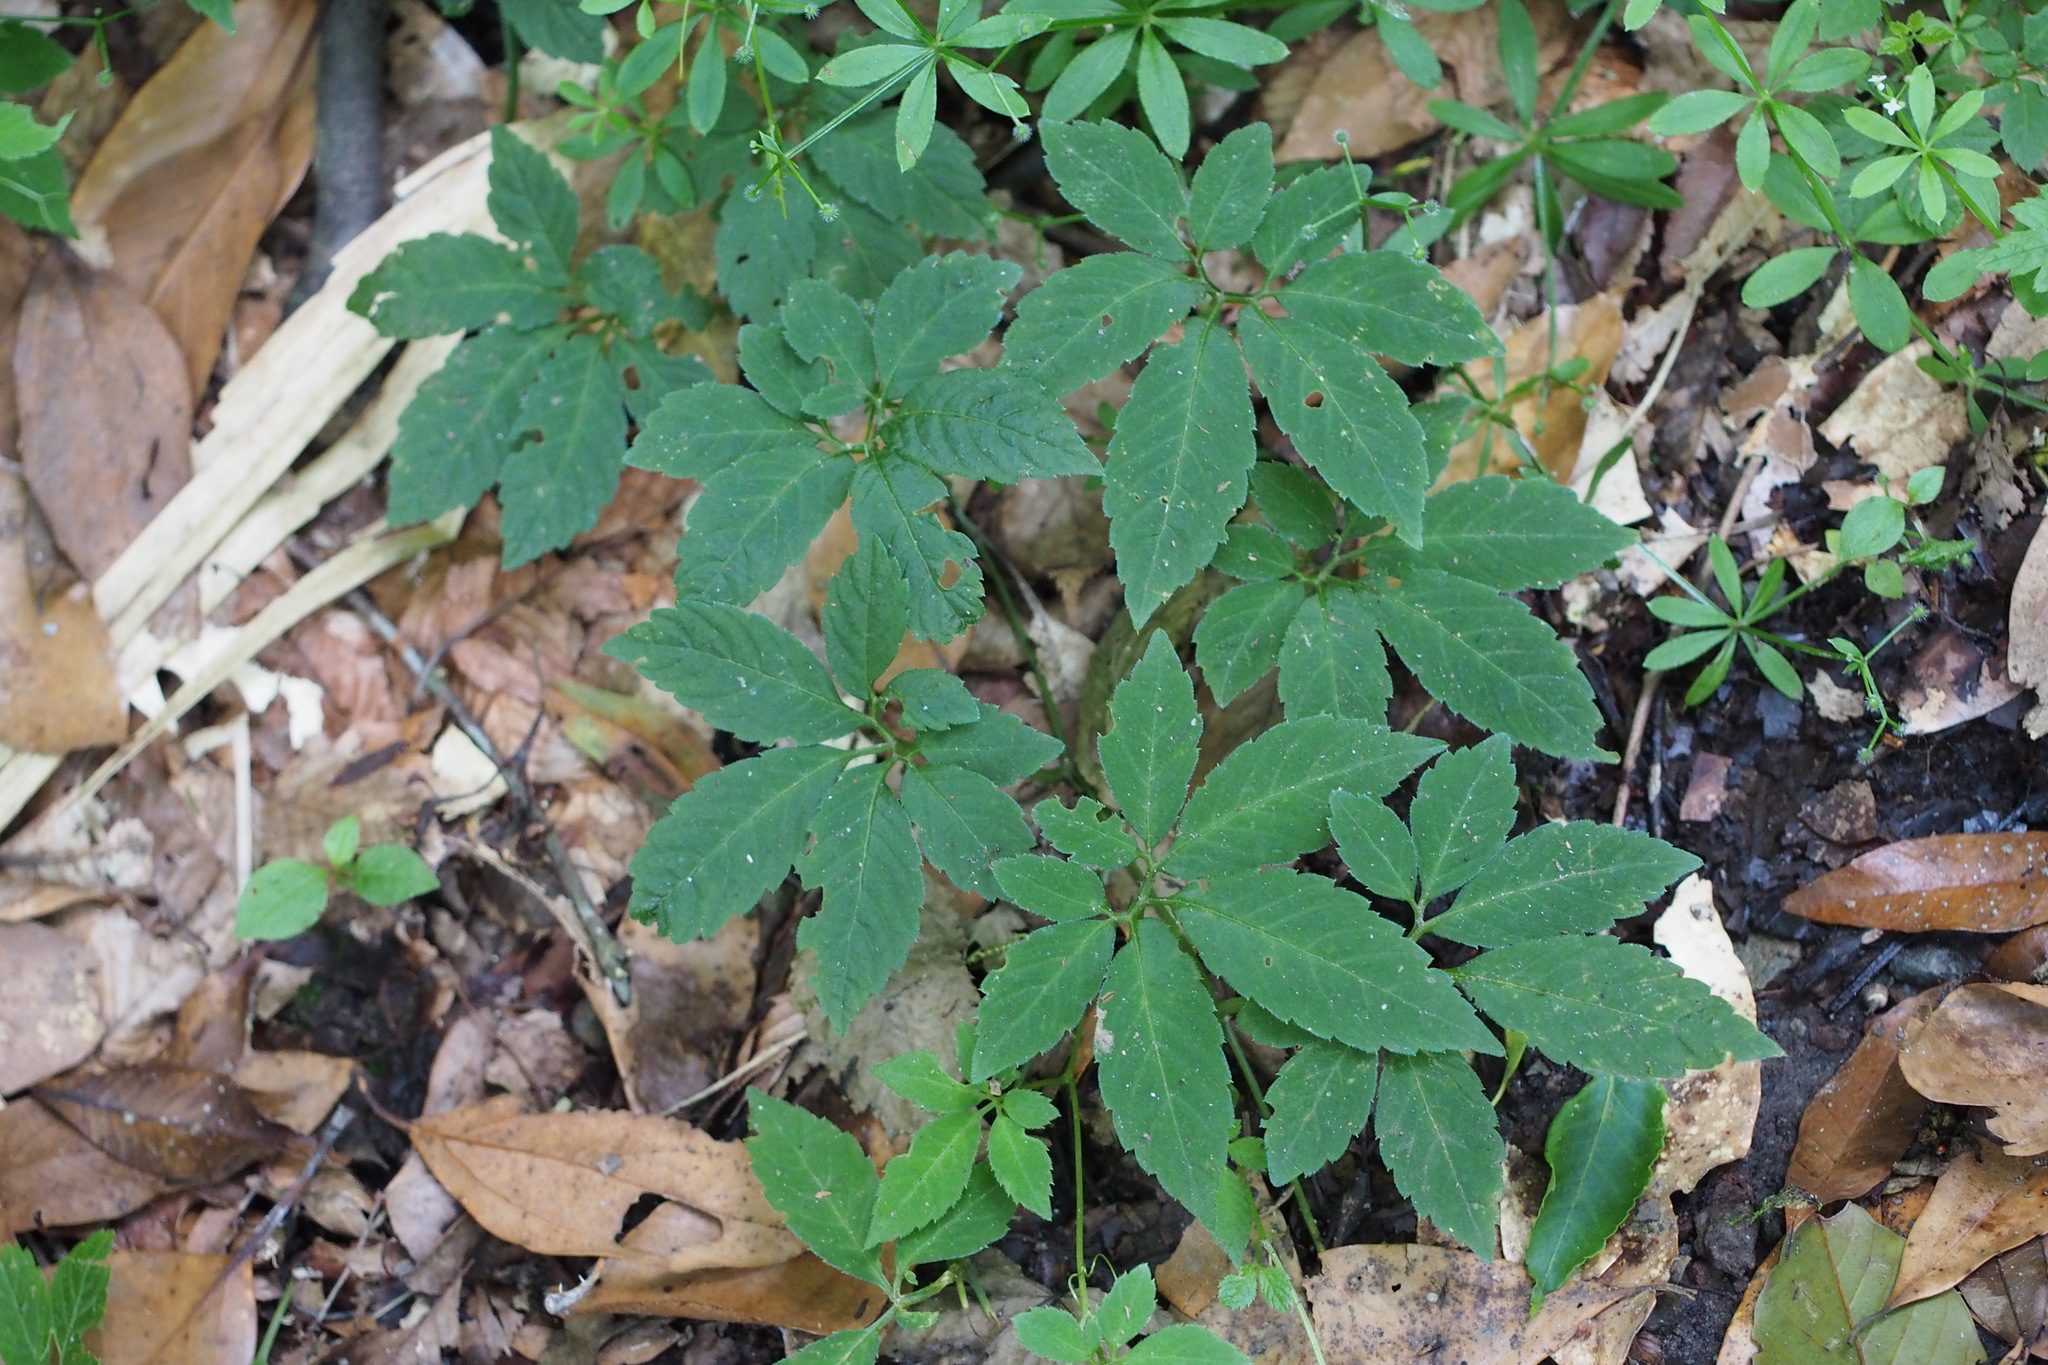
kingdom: Plantae
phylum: Tracheophyta
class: Magnoliopsida
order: Cucurbitales
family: Cucurbitaceae
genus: Gynostemma
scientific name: Gynostemma pentaphyllum
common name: Gynostemma
